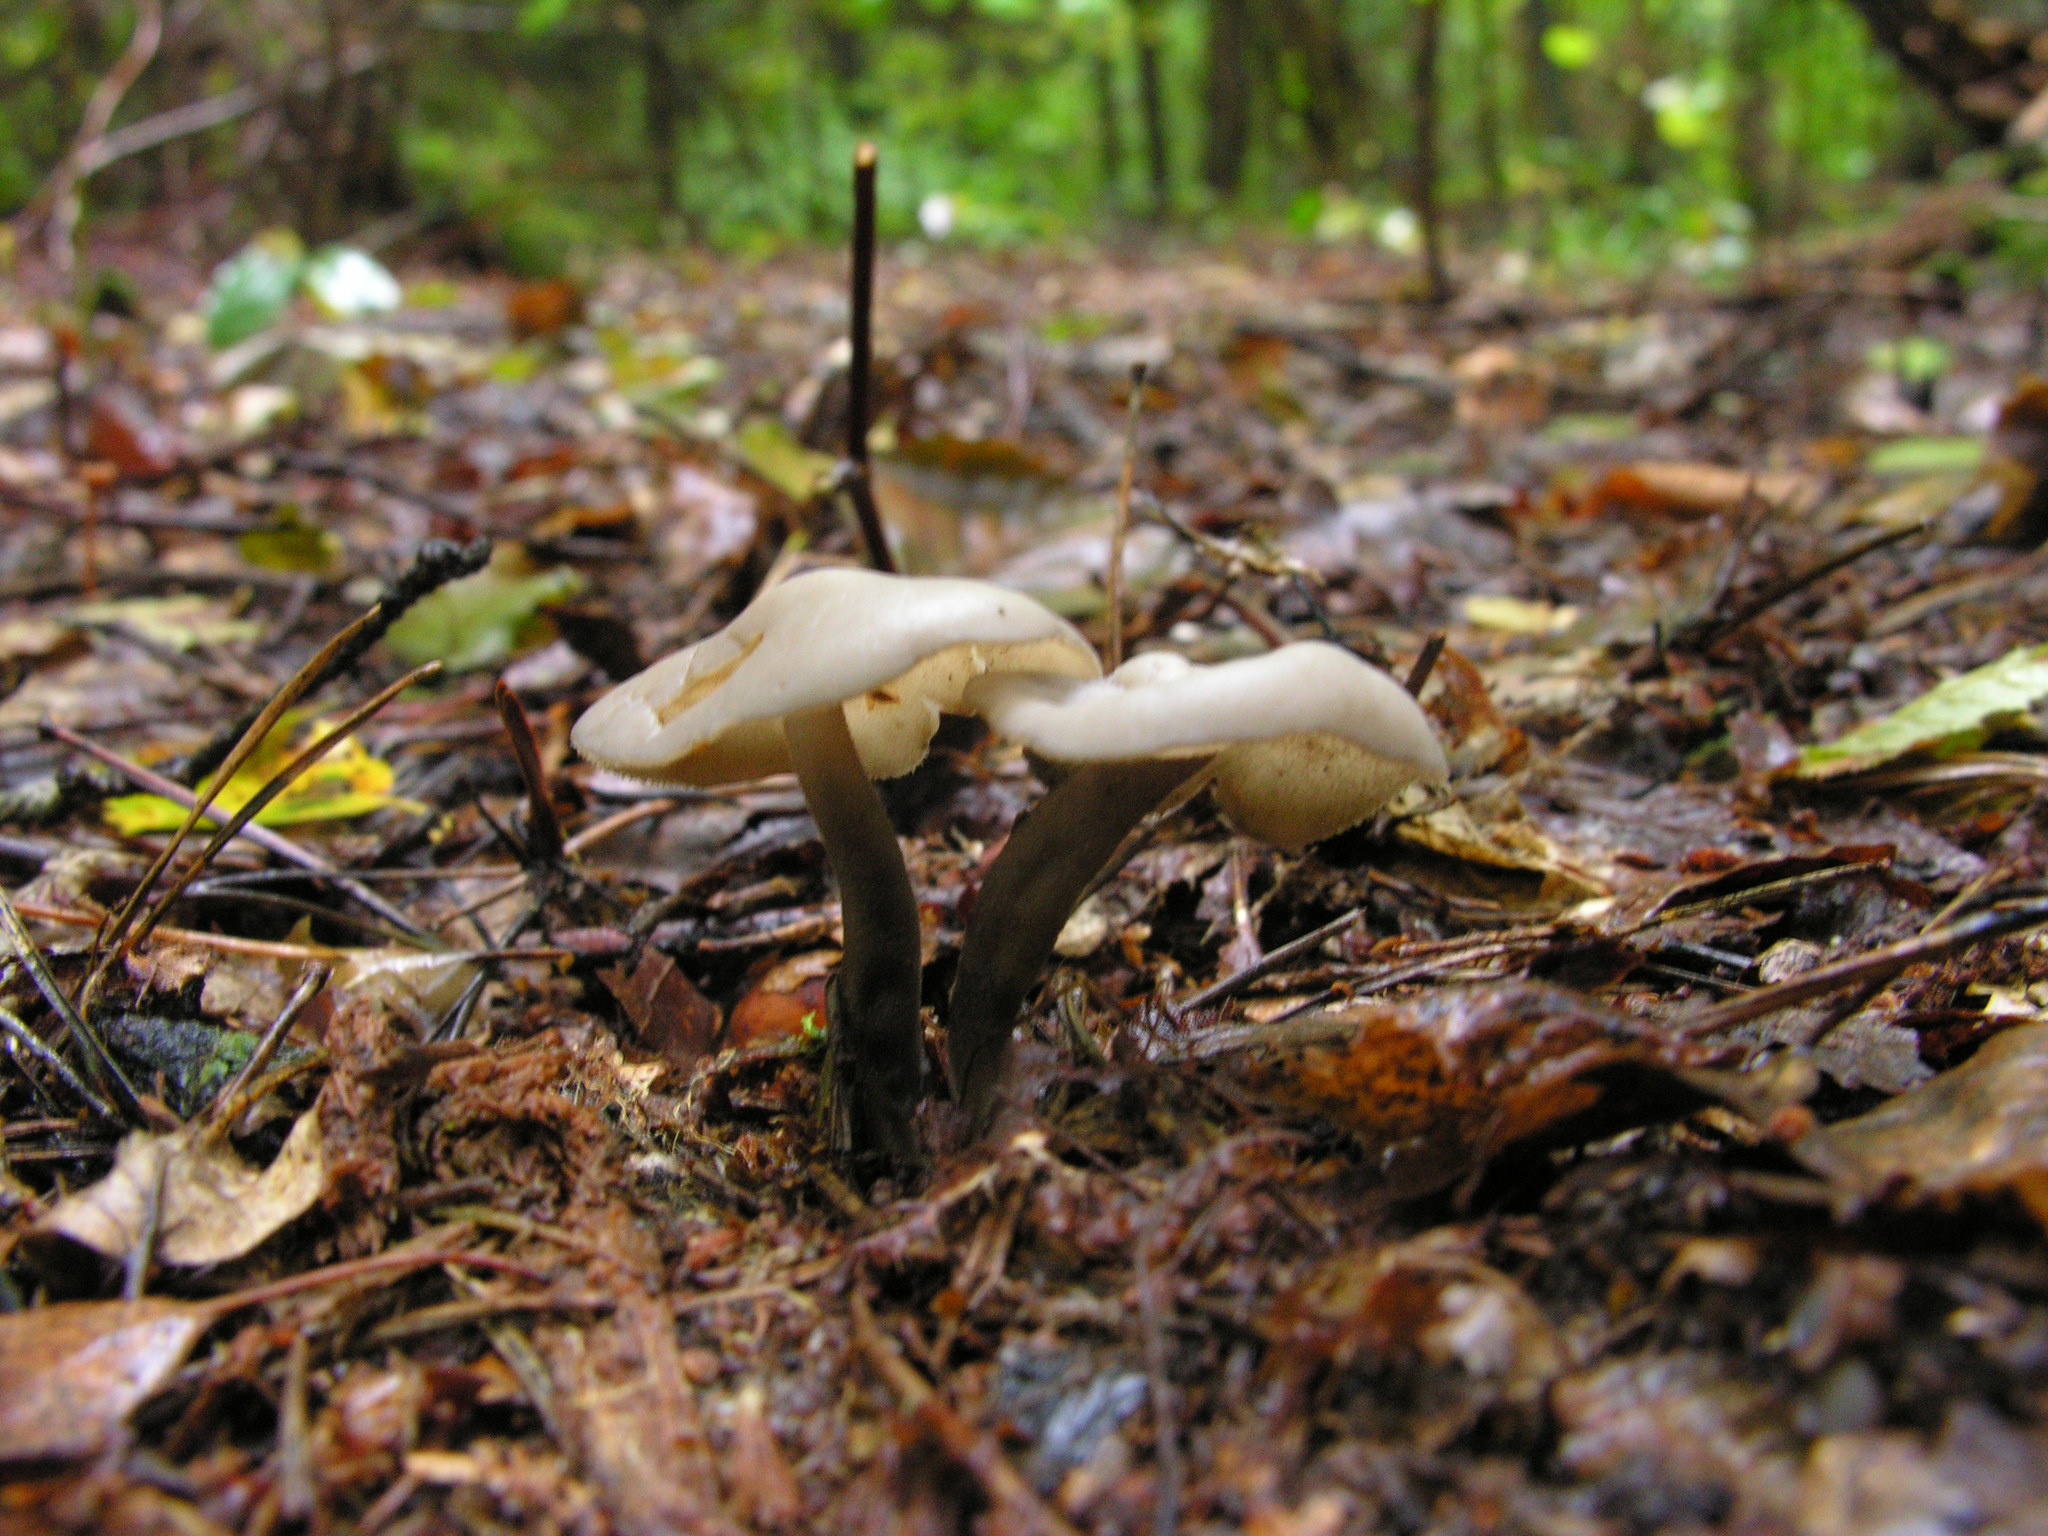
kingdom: Fungi
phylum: Ascomycota
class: Pezizomycetes
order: Pezizales
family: Helvellaceae
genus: Helvella
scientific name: Helvella macropus
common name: Felt saddle
